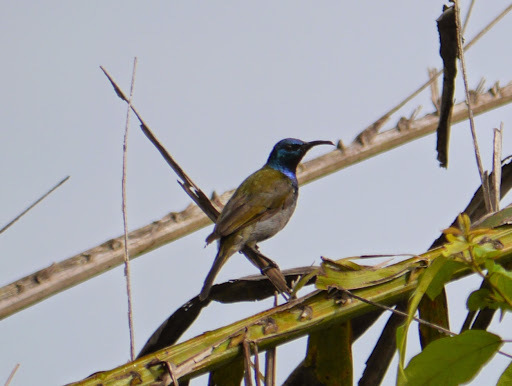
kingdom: Animalia
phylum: Chordata
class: Aves
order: Passeriformes
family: Nectariniidae
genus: Cyanomitra
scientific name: Cyanomitra verticalis
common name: Green-headed sunbird
